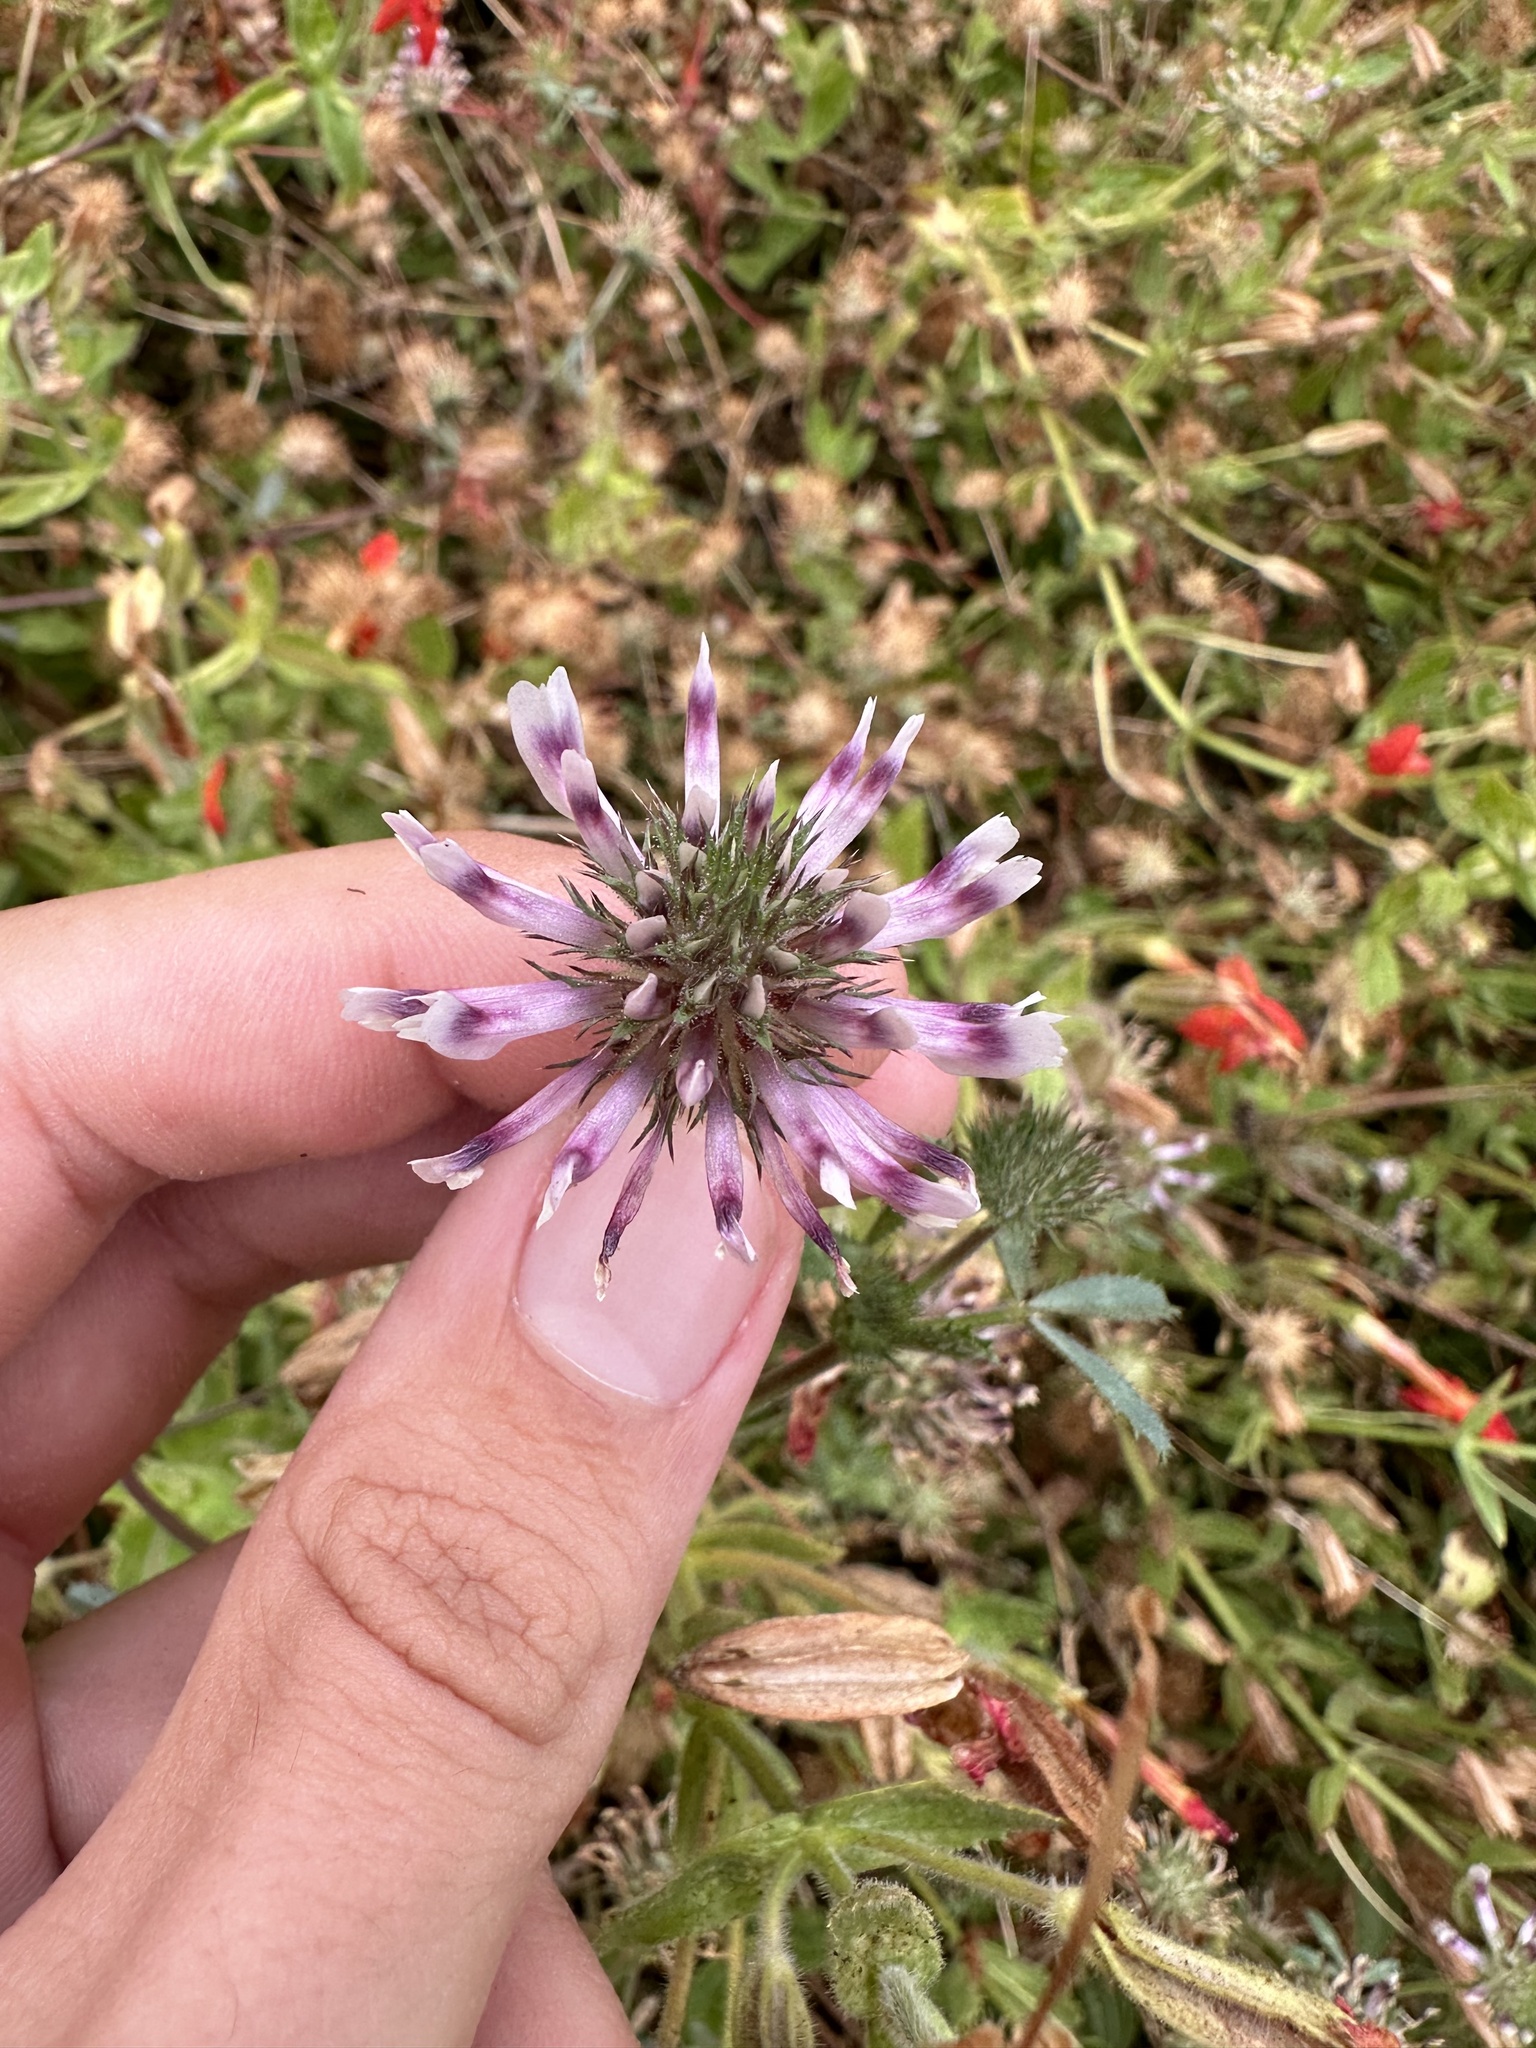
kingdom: Plantae
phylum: Tracheophyta
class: Magnoliopsida
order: Fabales
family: Fabaceae
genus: Trifolium
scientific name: Trifolium obtusiflorum
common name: Clammy clover
